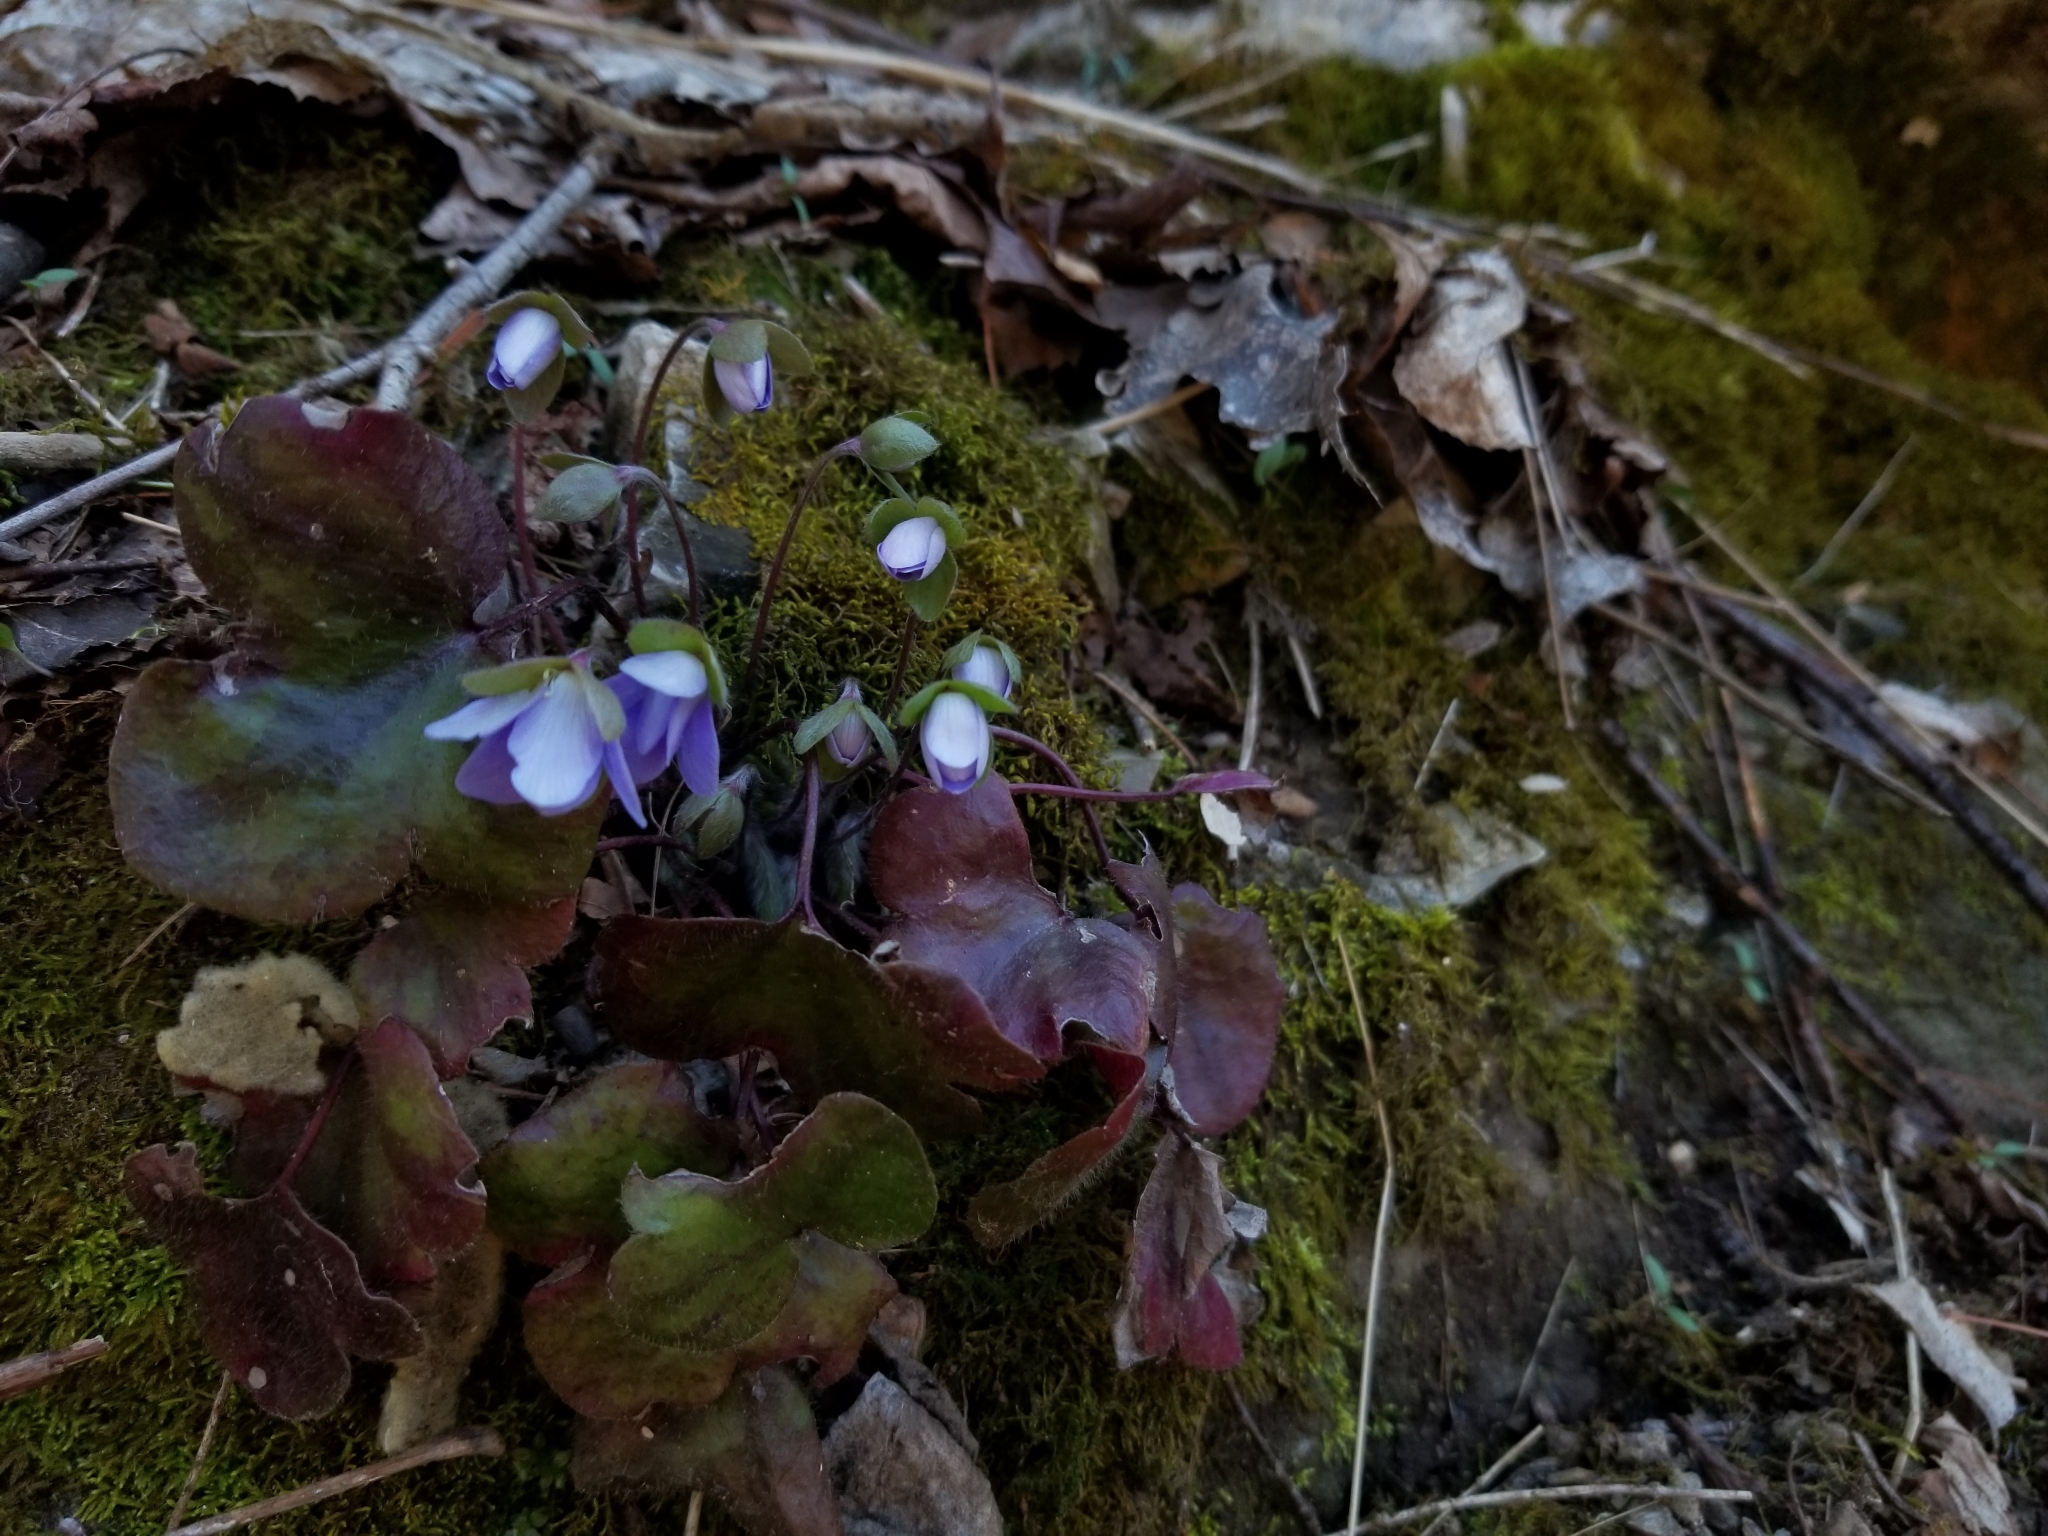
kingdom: Plantae
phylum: Tracheophyta
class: Magnoliopsida
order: Ranunculales
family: Ranunculaceae
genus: Hepatica
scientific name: Hepatica americana
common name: American hepatica
